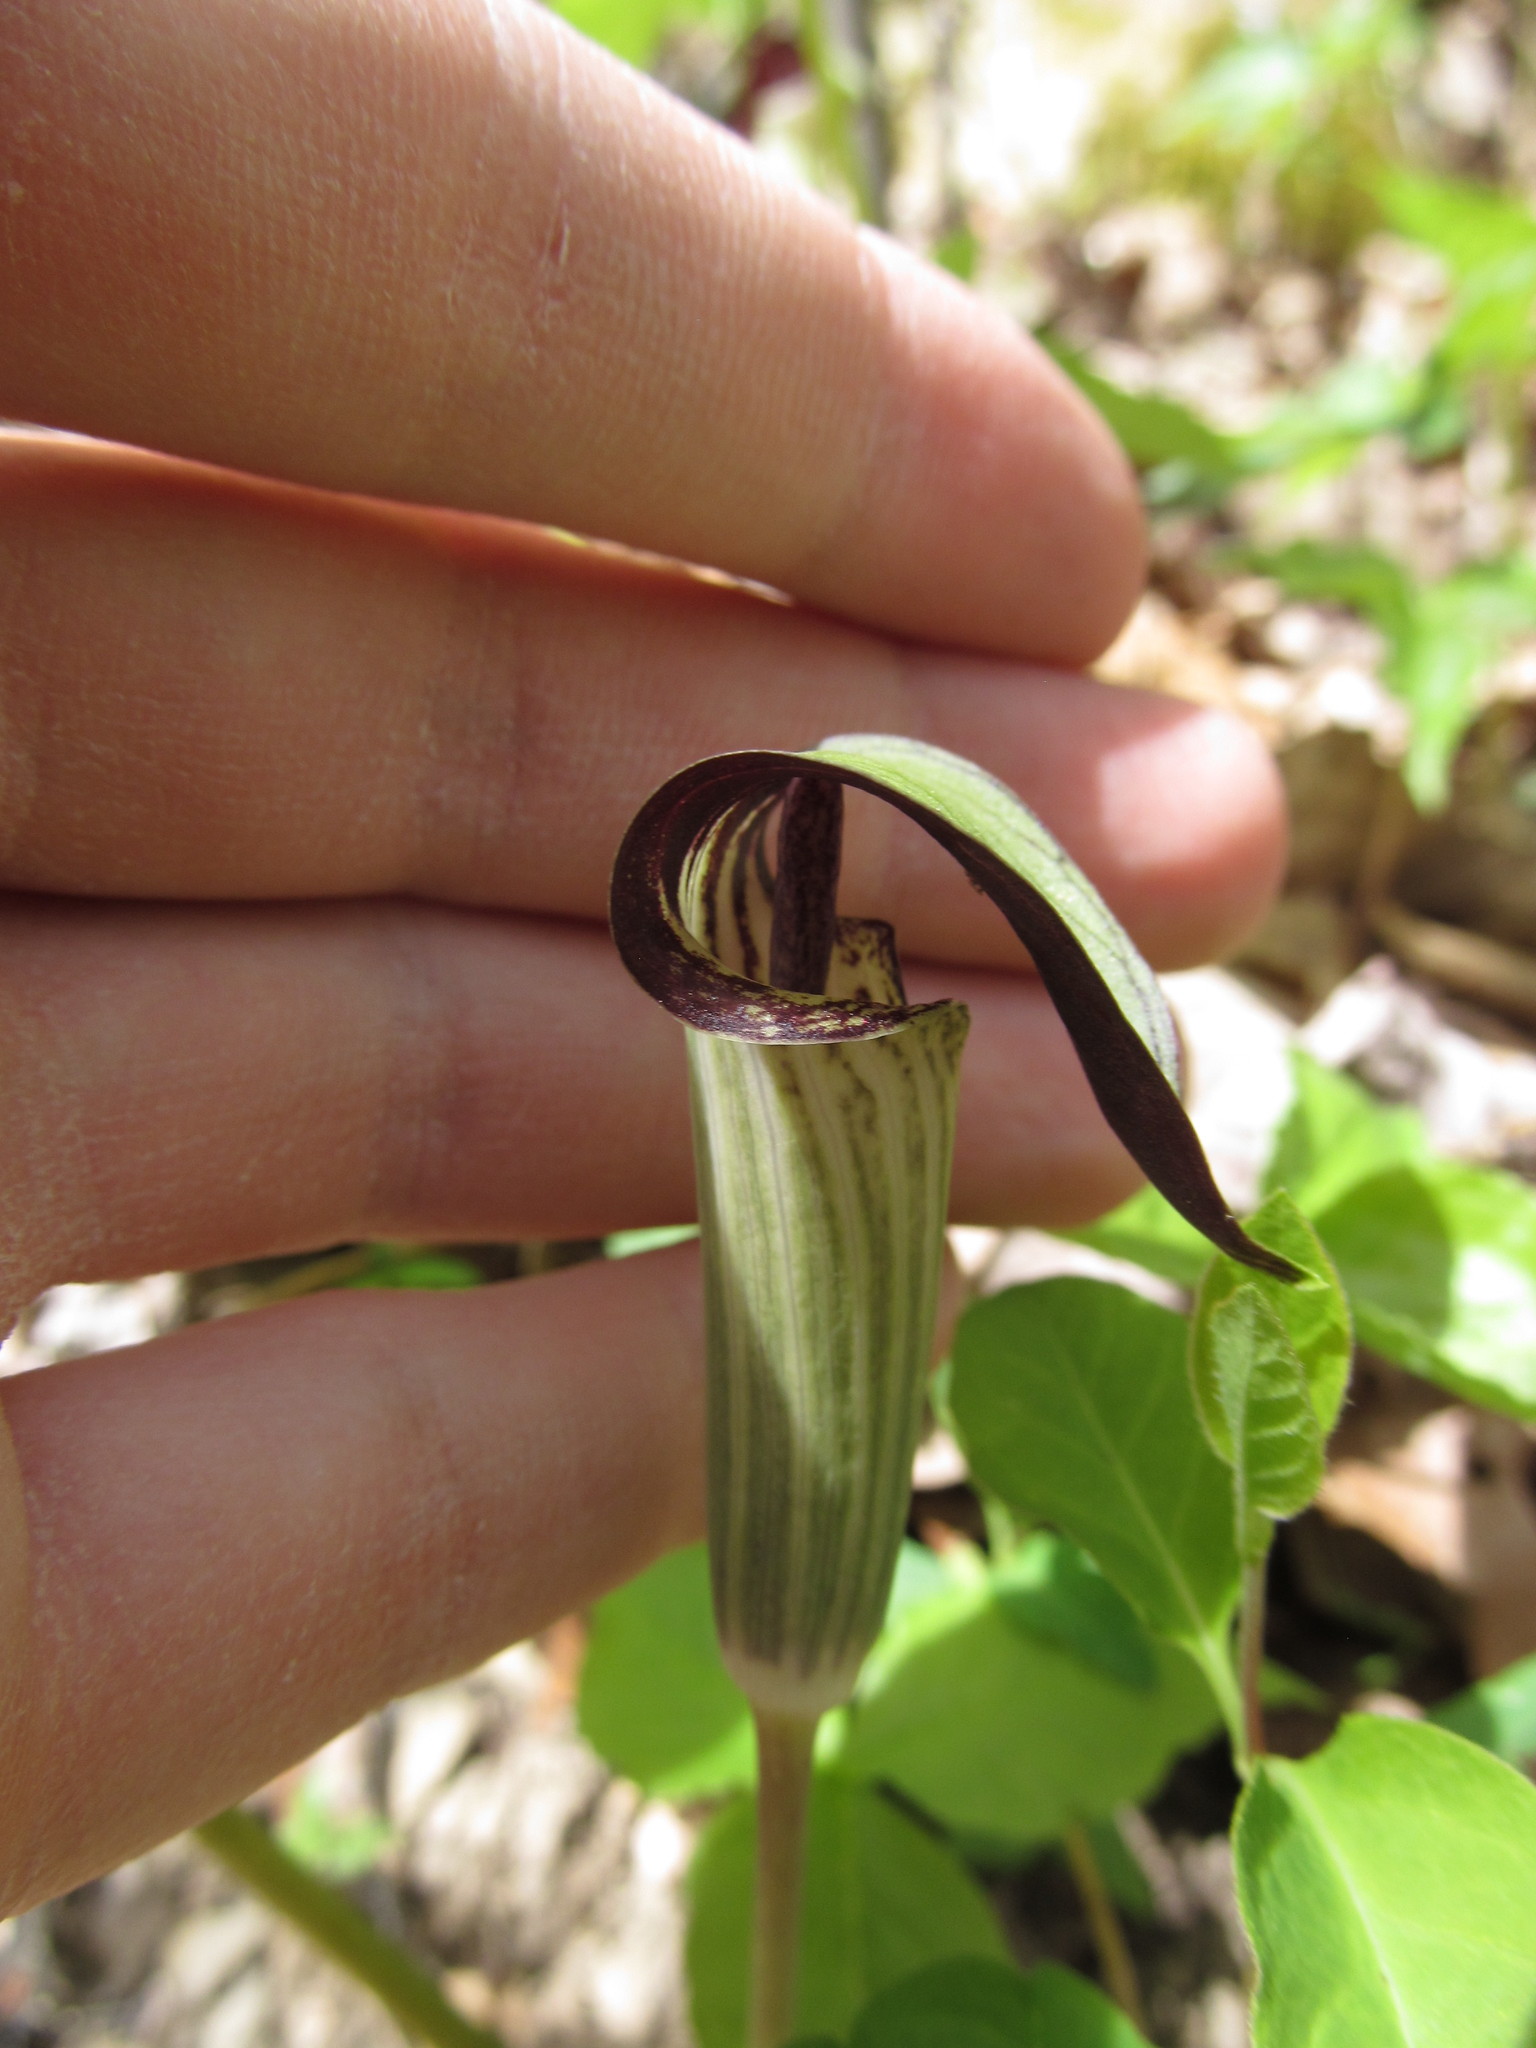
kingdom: Plantae
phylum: Tracheophyta
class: Liliopsida
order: Alismatales
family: Araceae
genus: Arisaema
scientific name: Arisaema triphyllum
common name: Jack-in-the-pulpit
